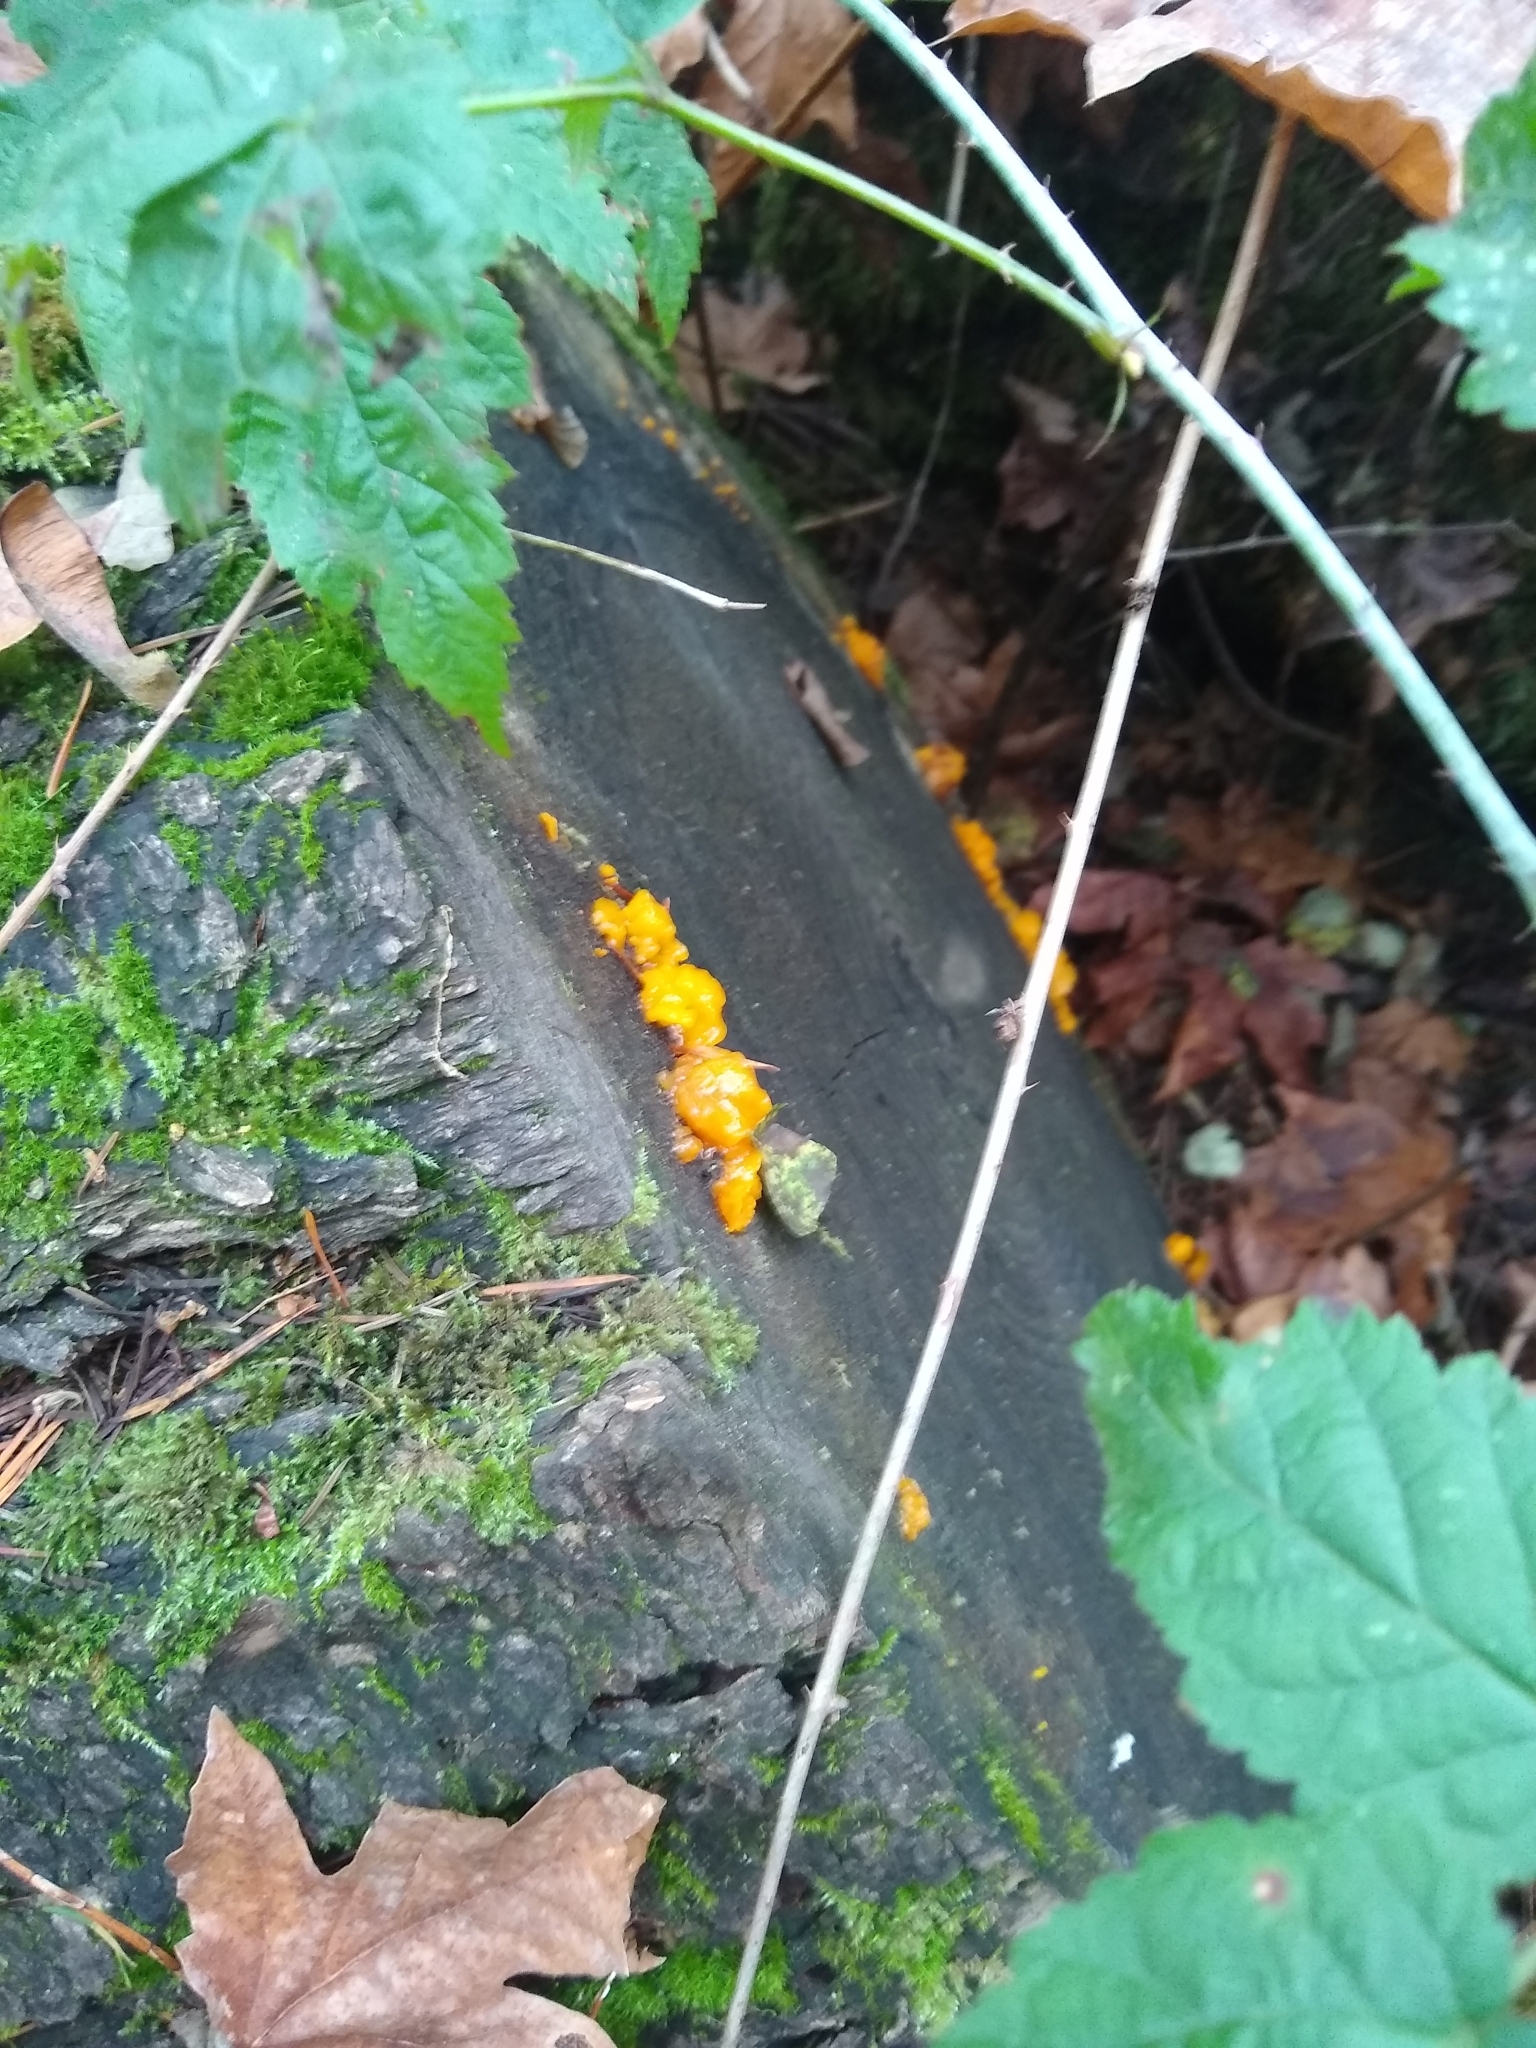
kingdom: Fungi
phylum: Basidiomycota
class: Dacrymycetes
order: Dacrymycetales
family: Dacrymycetaceae
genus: Dacrymyces
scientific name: Dacrymyces chrysospermus
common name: Orange jelly spot
